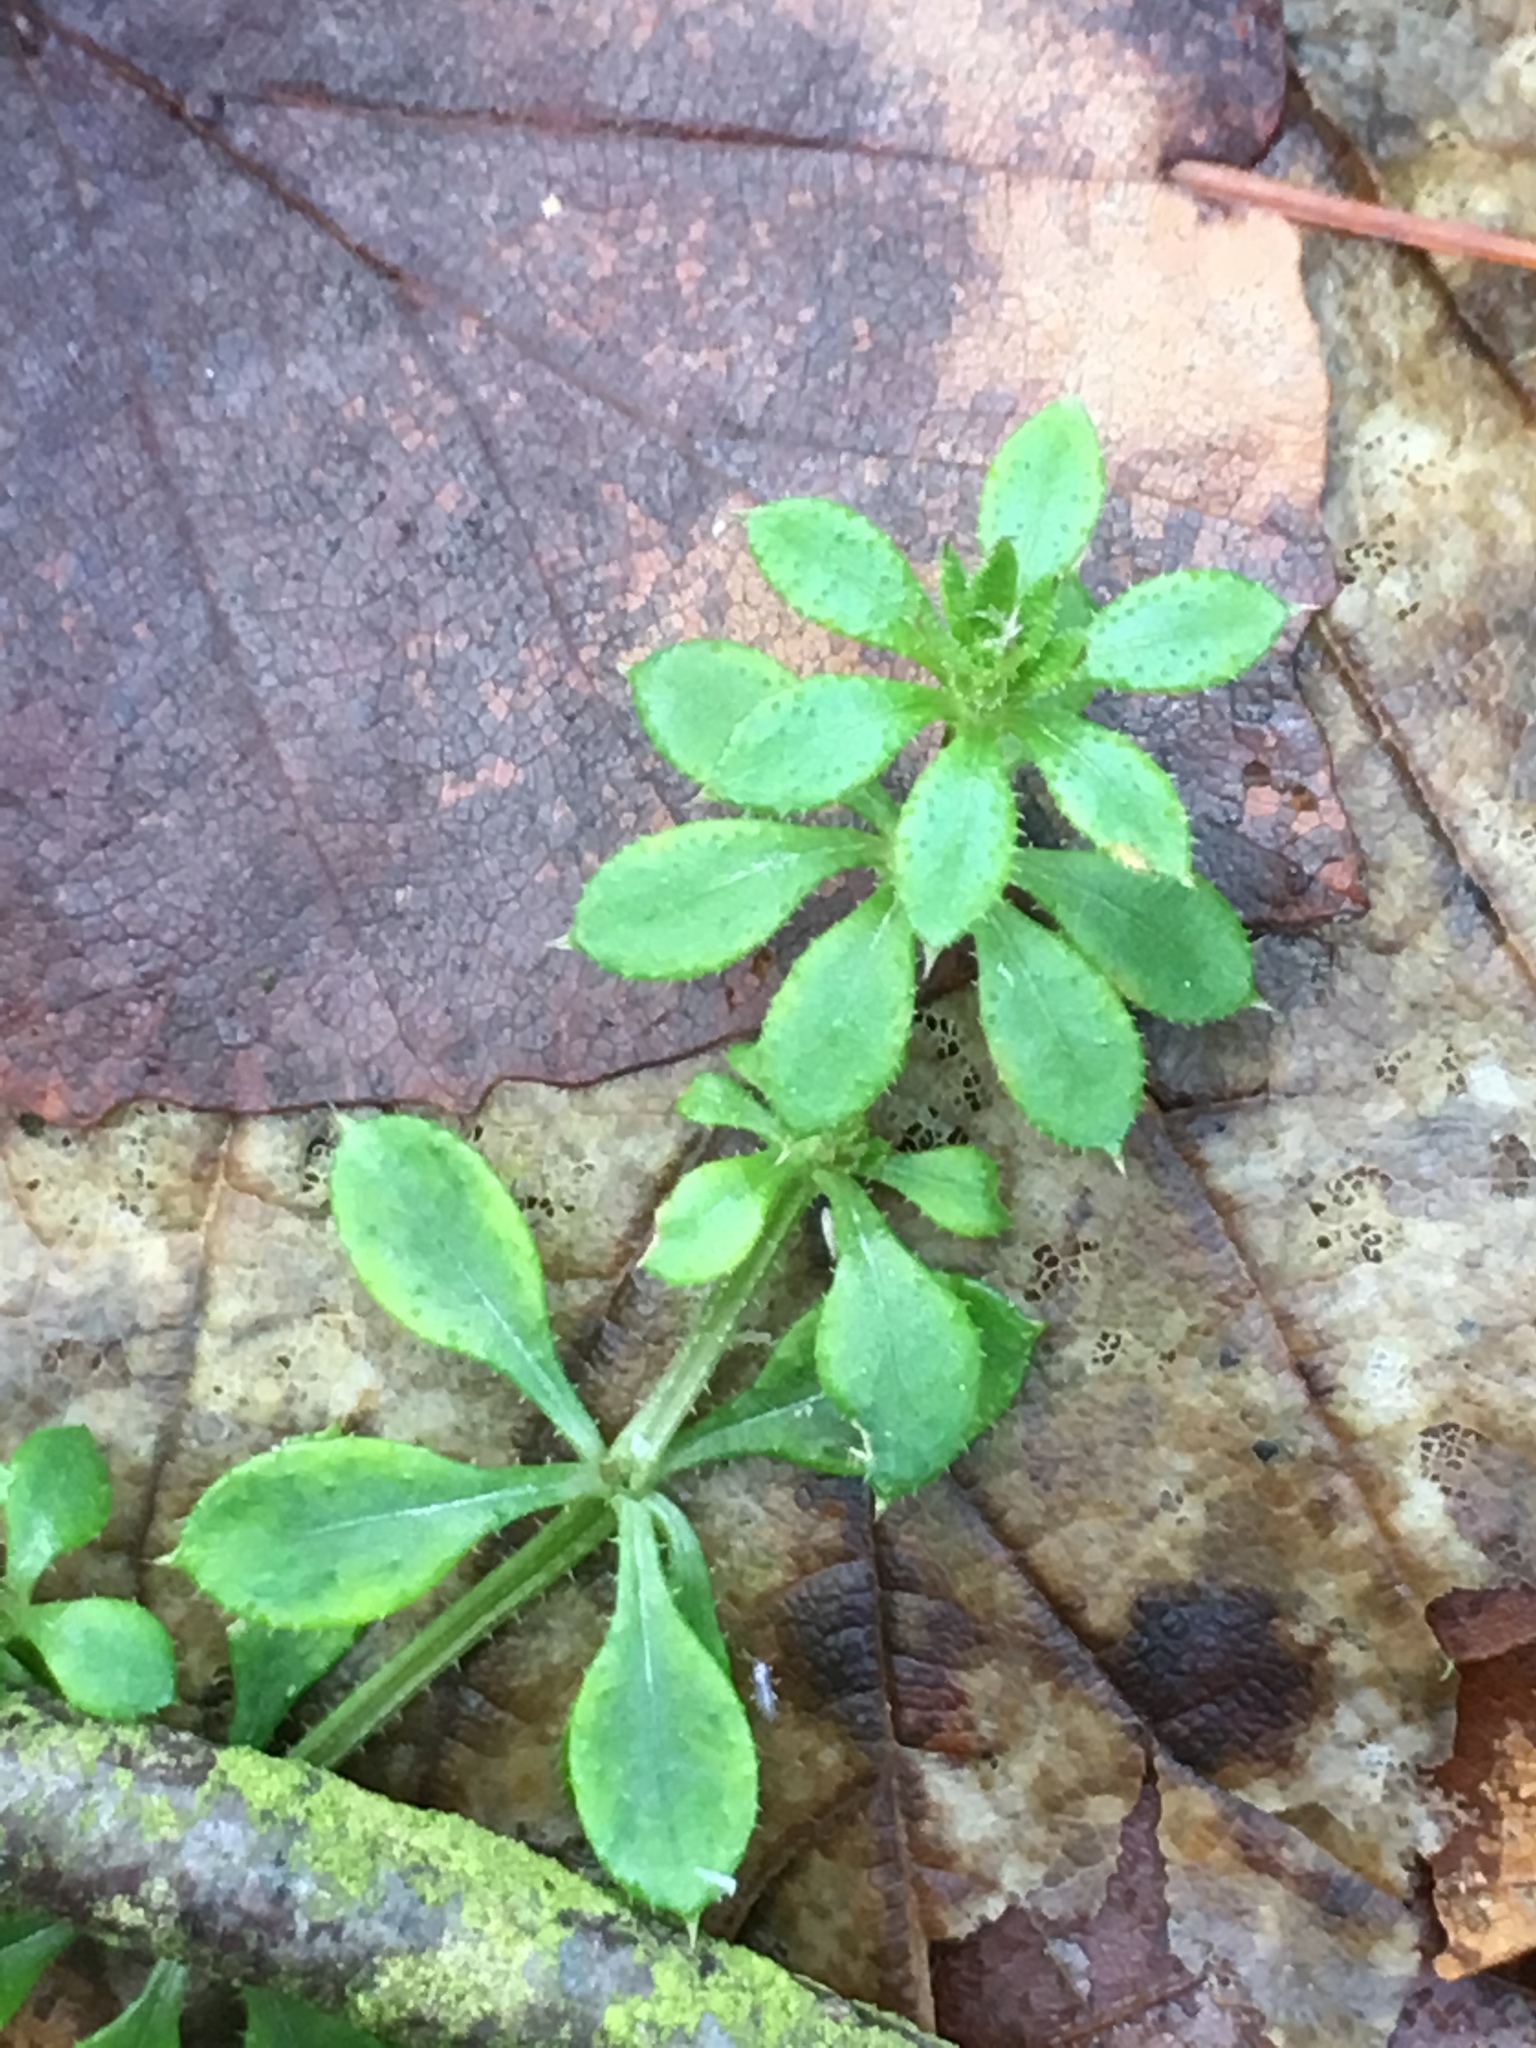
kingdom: Plantae
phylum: Tracheophyta
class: Magnoliopsida
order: Gentianales
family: Rubiaceae
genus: Galium
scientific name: Galium aparine
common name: Cleavers
